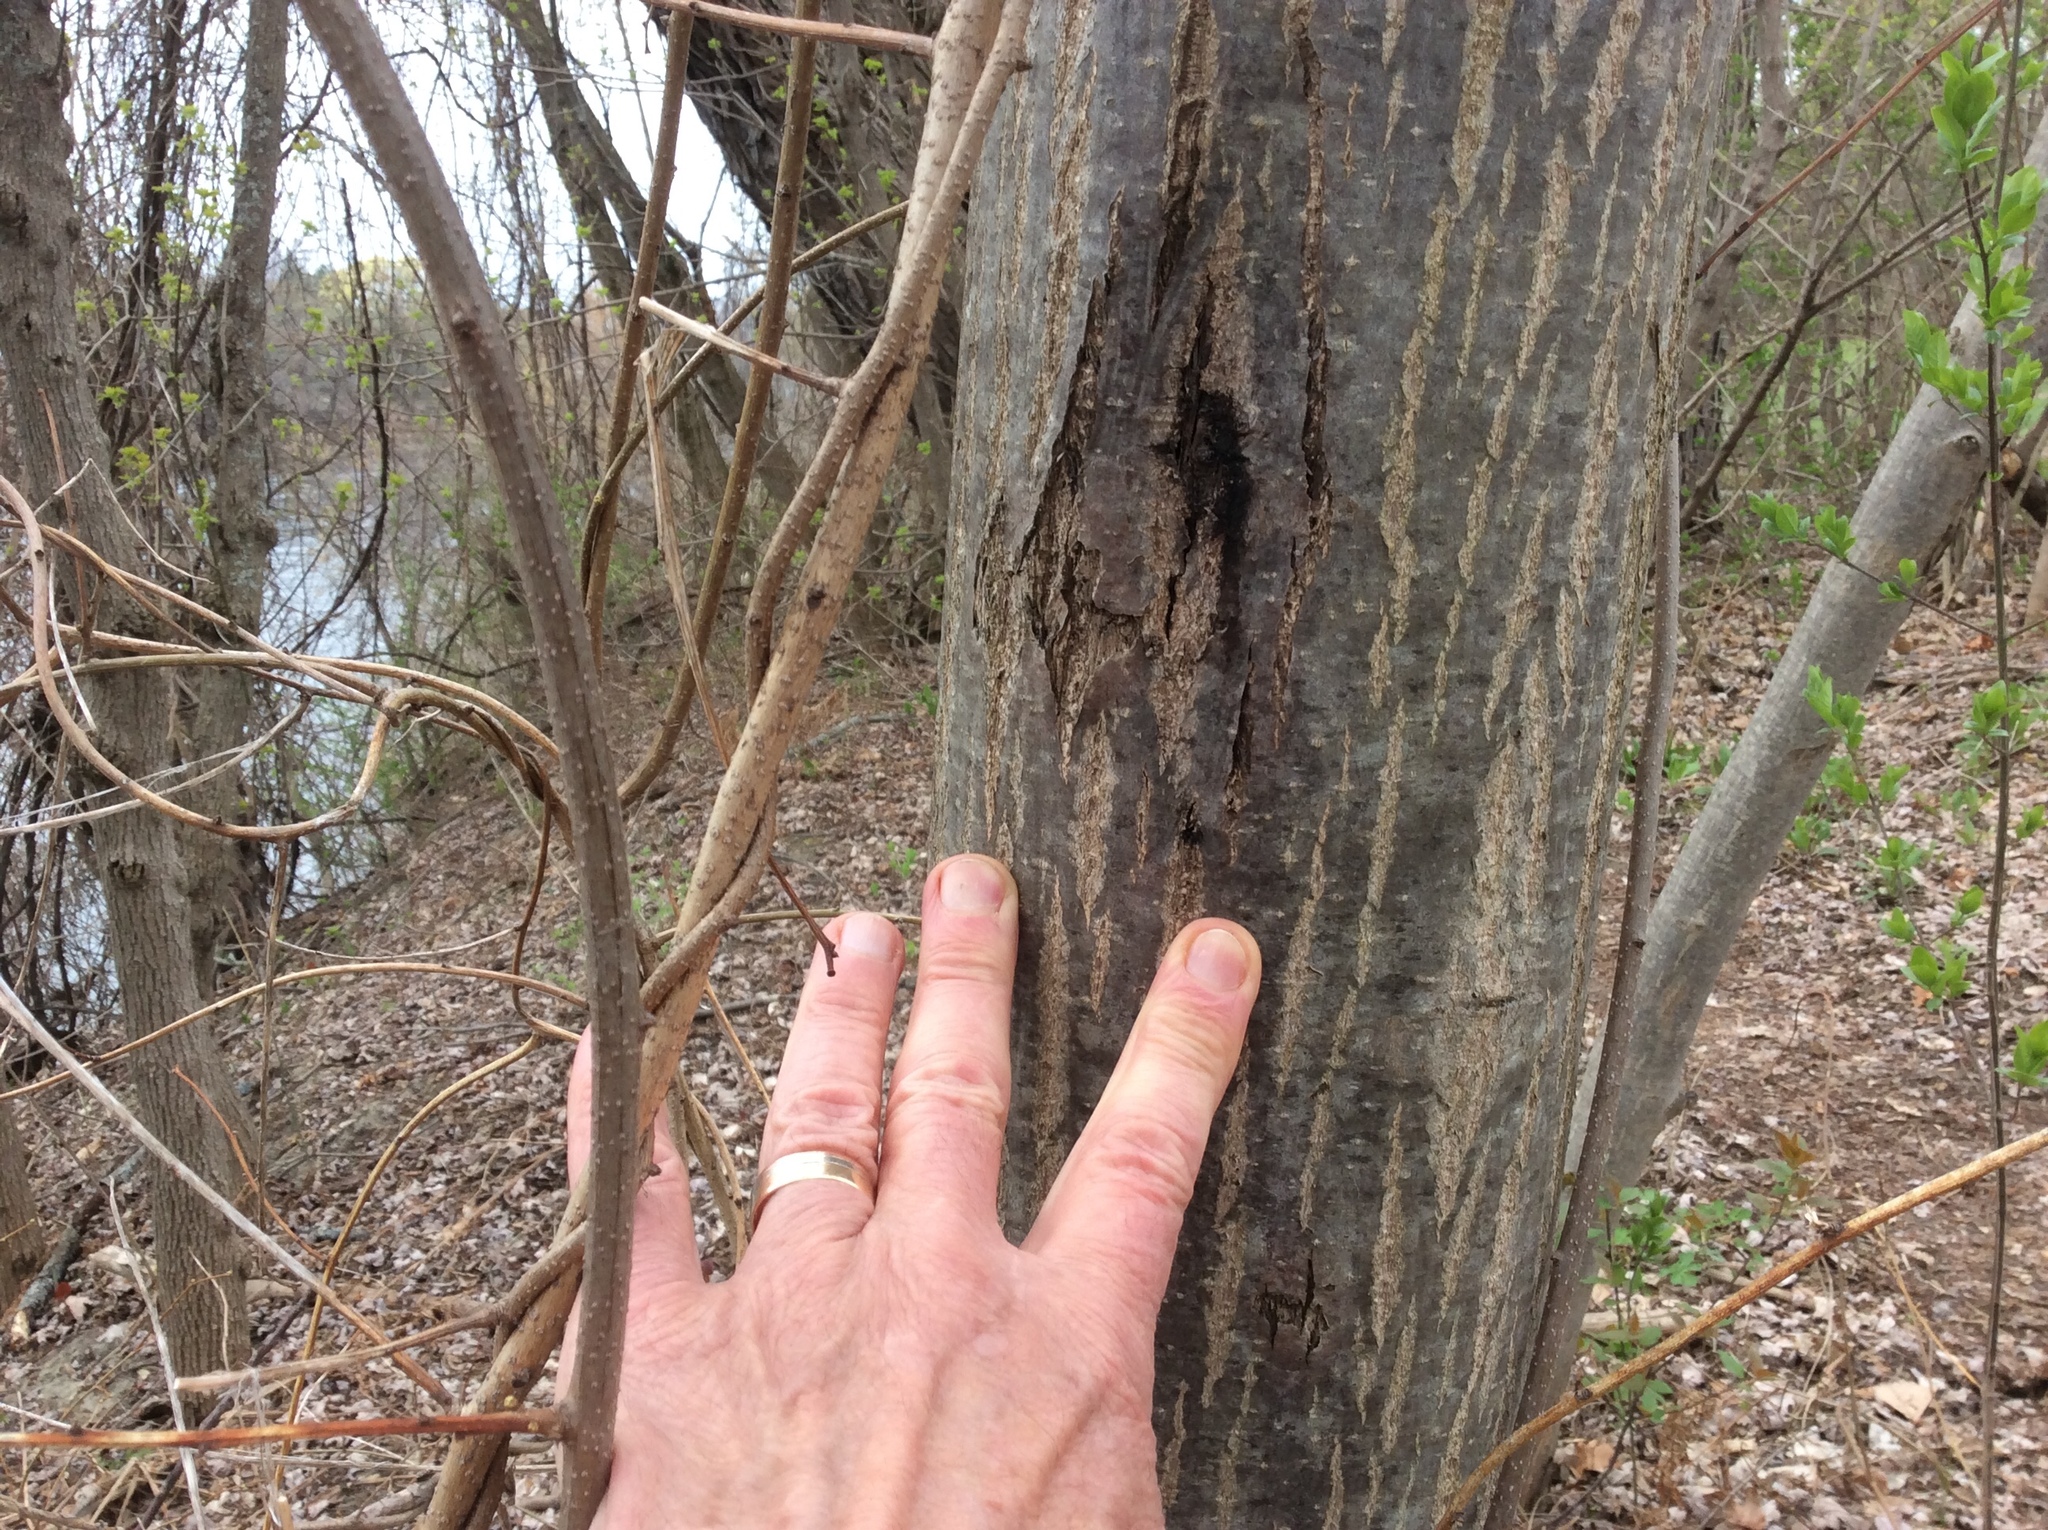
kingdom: Plantae
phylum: Tracheophyta
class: Magnoliopsida
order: Fagales
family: Juglandaceae
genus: Juglans
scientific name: Juglans cinerea
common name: Butternut
